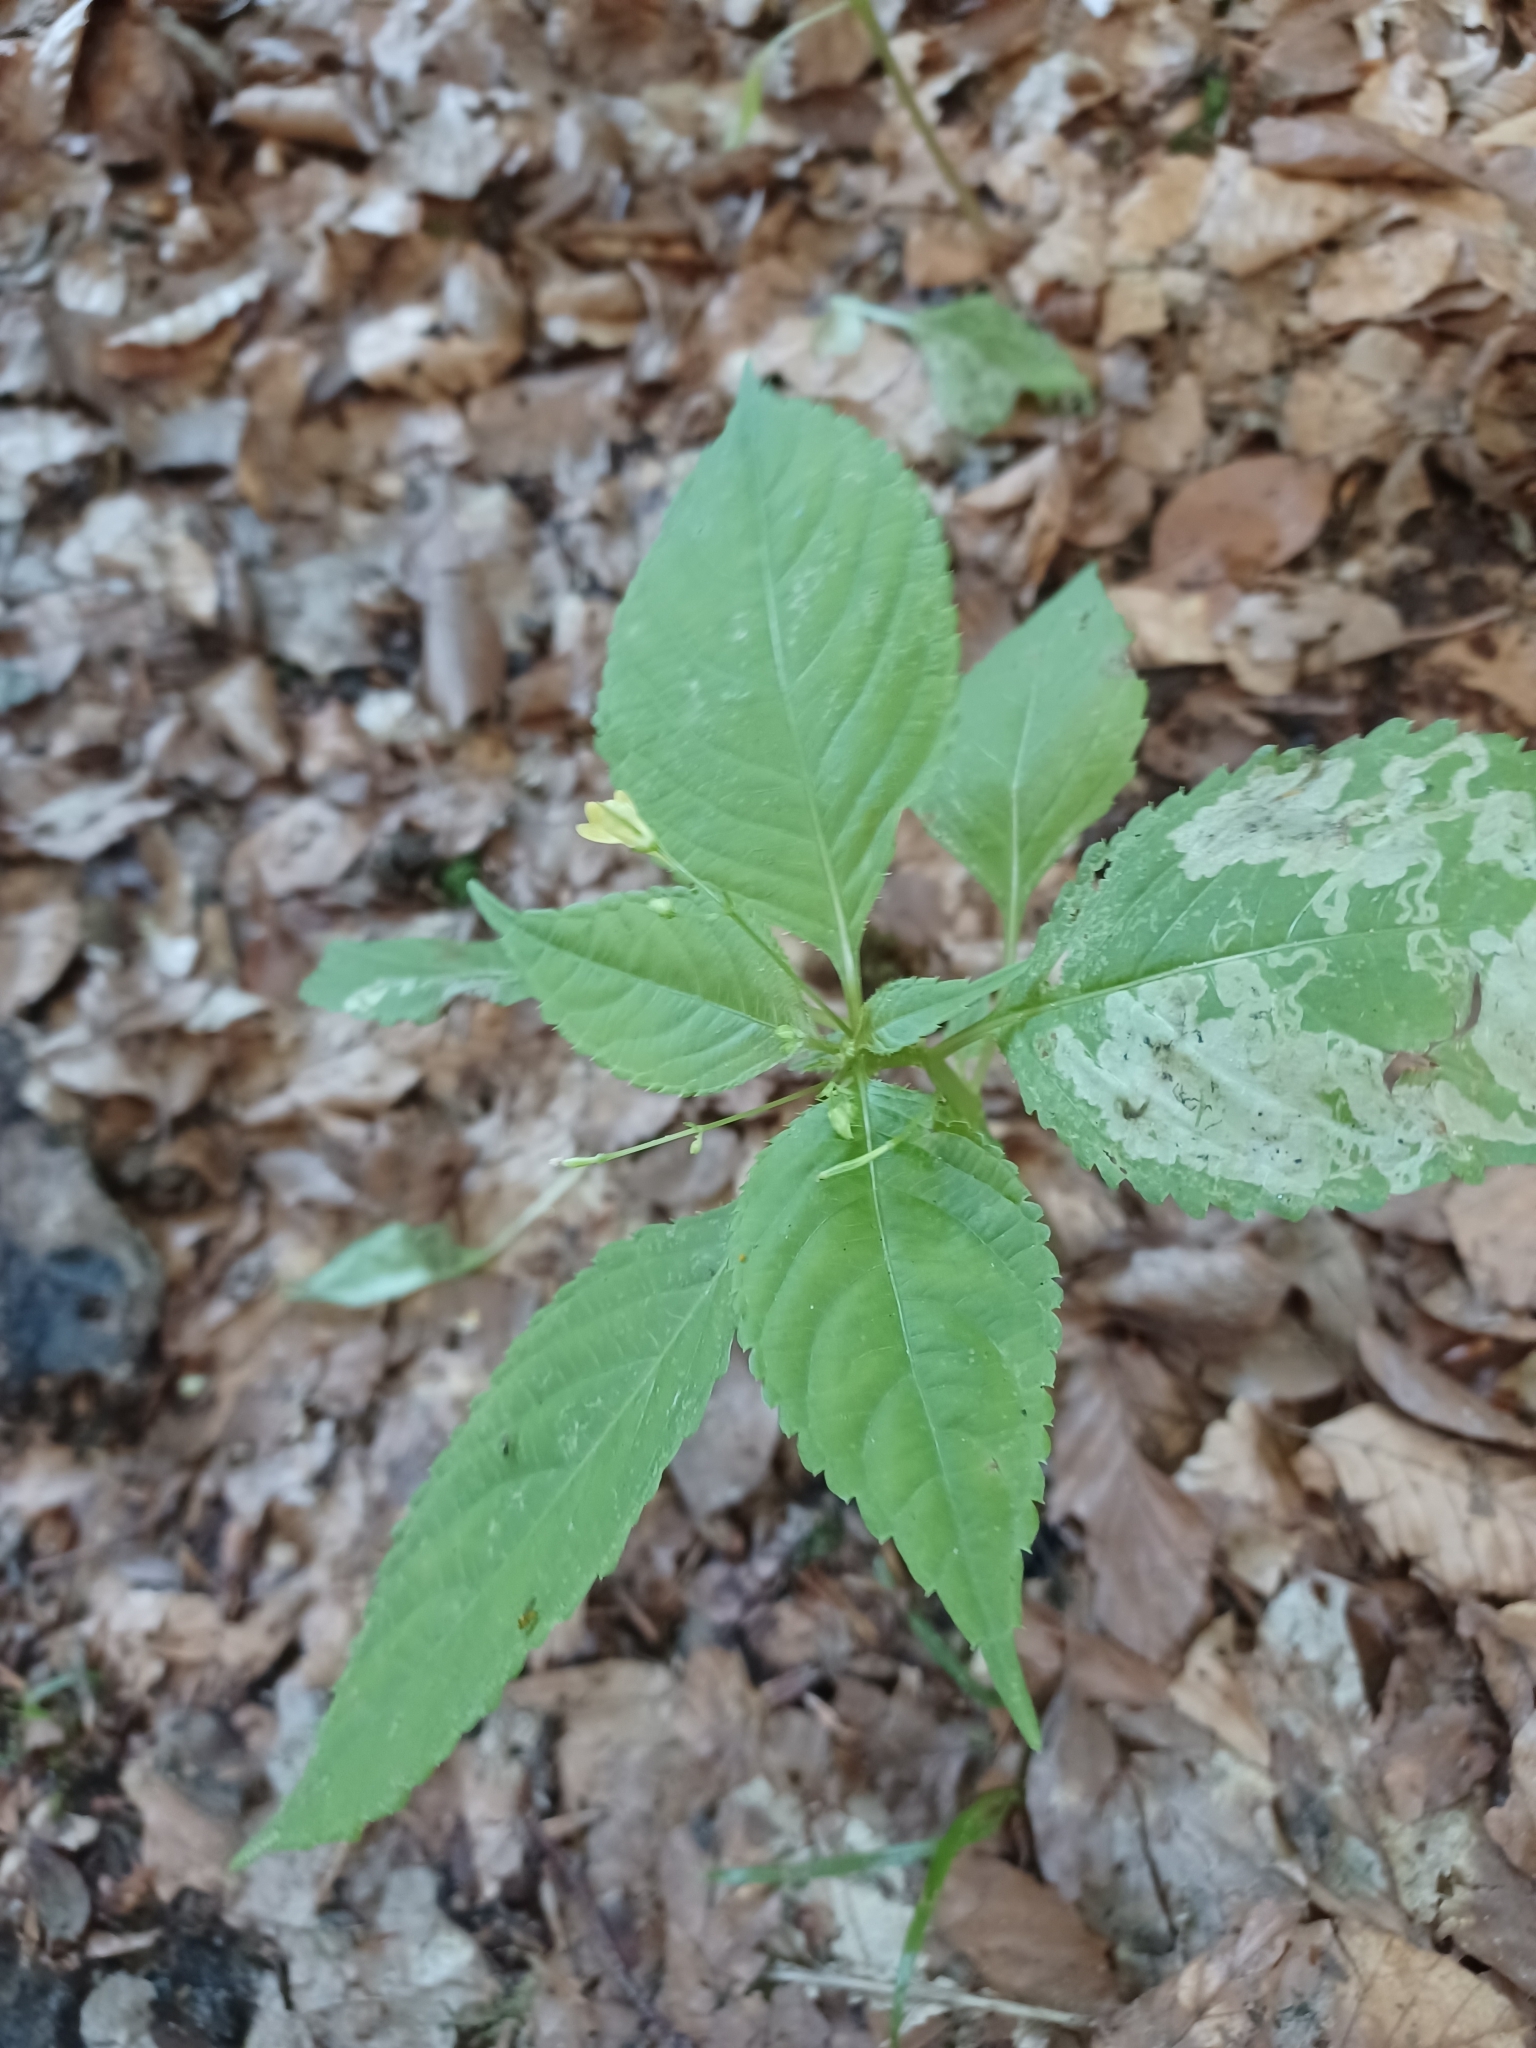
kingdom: Plantae
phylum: Tracheophyta
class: Magnoliopsida
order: Ericales
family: Balsaminaceae
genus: Impatiens
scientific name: Impatiens parviflora
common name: Small balsam
